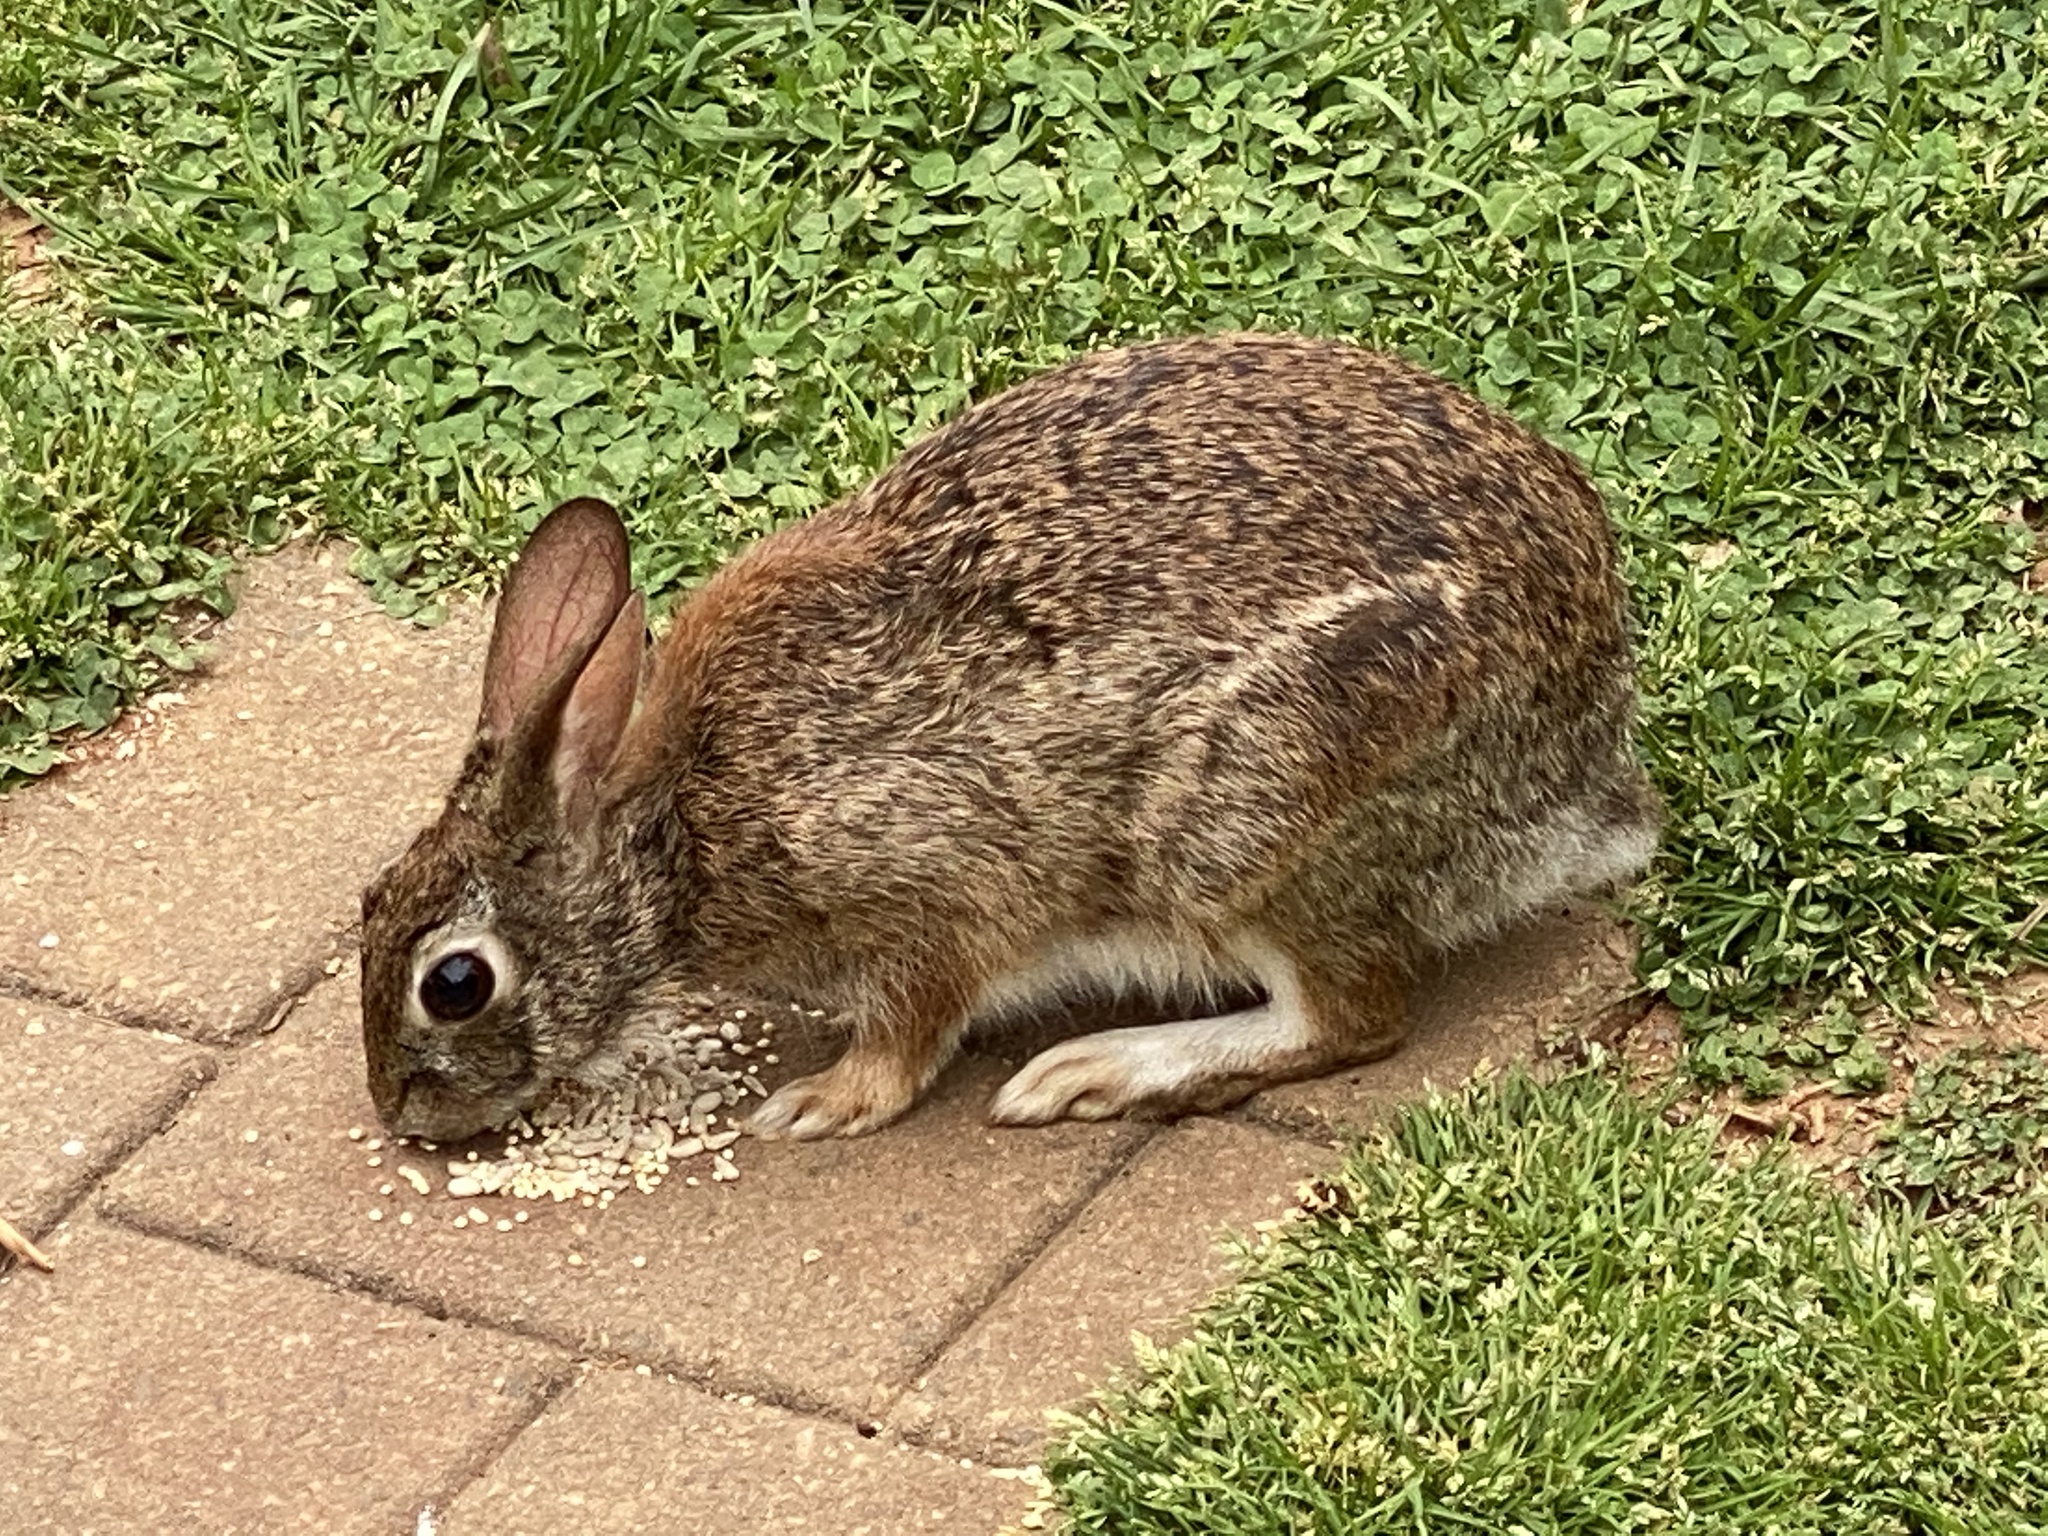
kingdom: Animalia
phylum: Chordata
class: Mammalia
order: Lagomorpha
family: Leporidae
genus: Sylvilagus
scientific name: Sylvilagus floridanus
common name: Eastern cottontail
